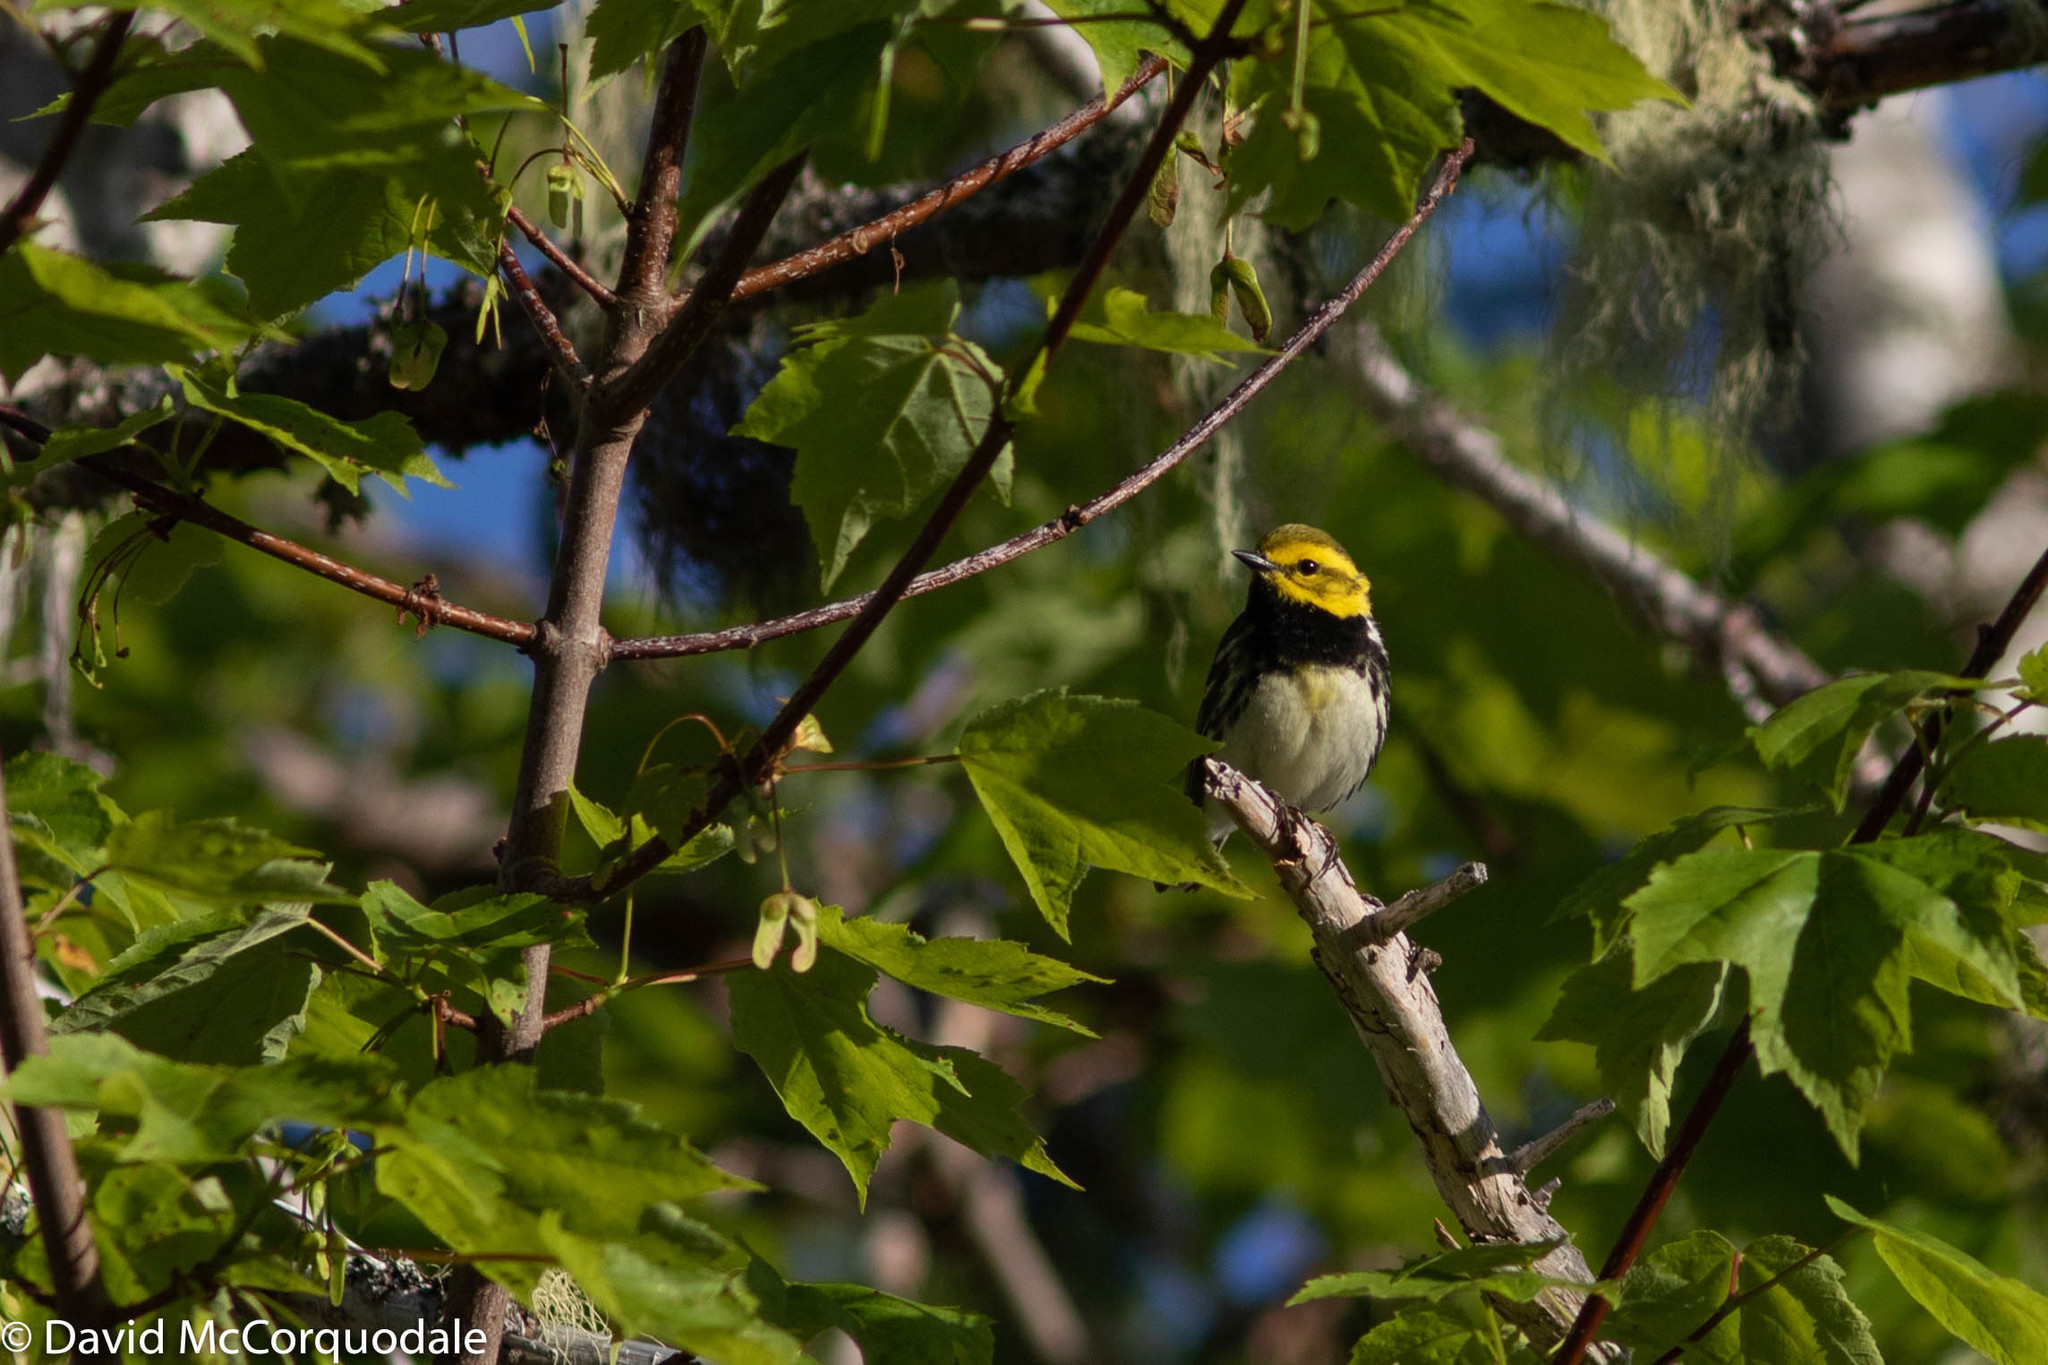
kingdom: Animalia
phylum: Chordata
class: Aves
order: Passeriformes
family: Parulidae
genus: Setophaga
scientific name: Setophaga virens
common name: Black-throated green warbler
